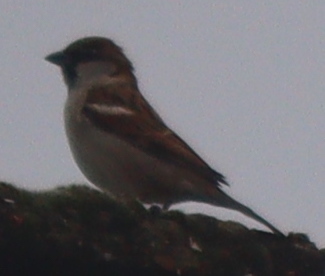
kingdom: Animalia
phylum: Chordata
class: Aves
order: Passeriformes
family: Passeridae
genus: Passer
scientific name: Passer domesticus
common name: House sparrow
